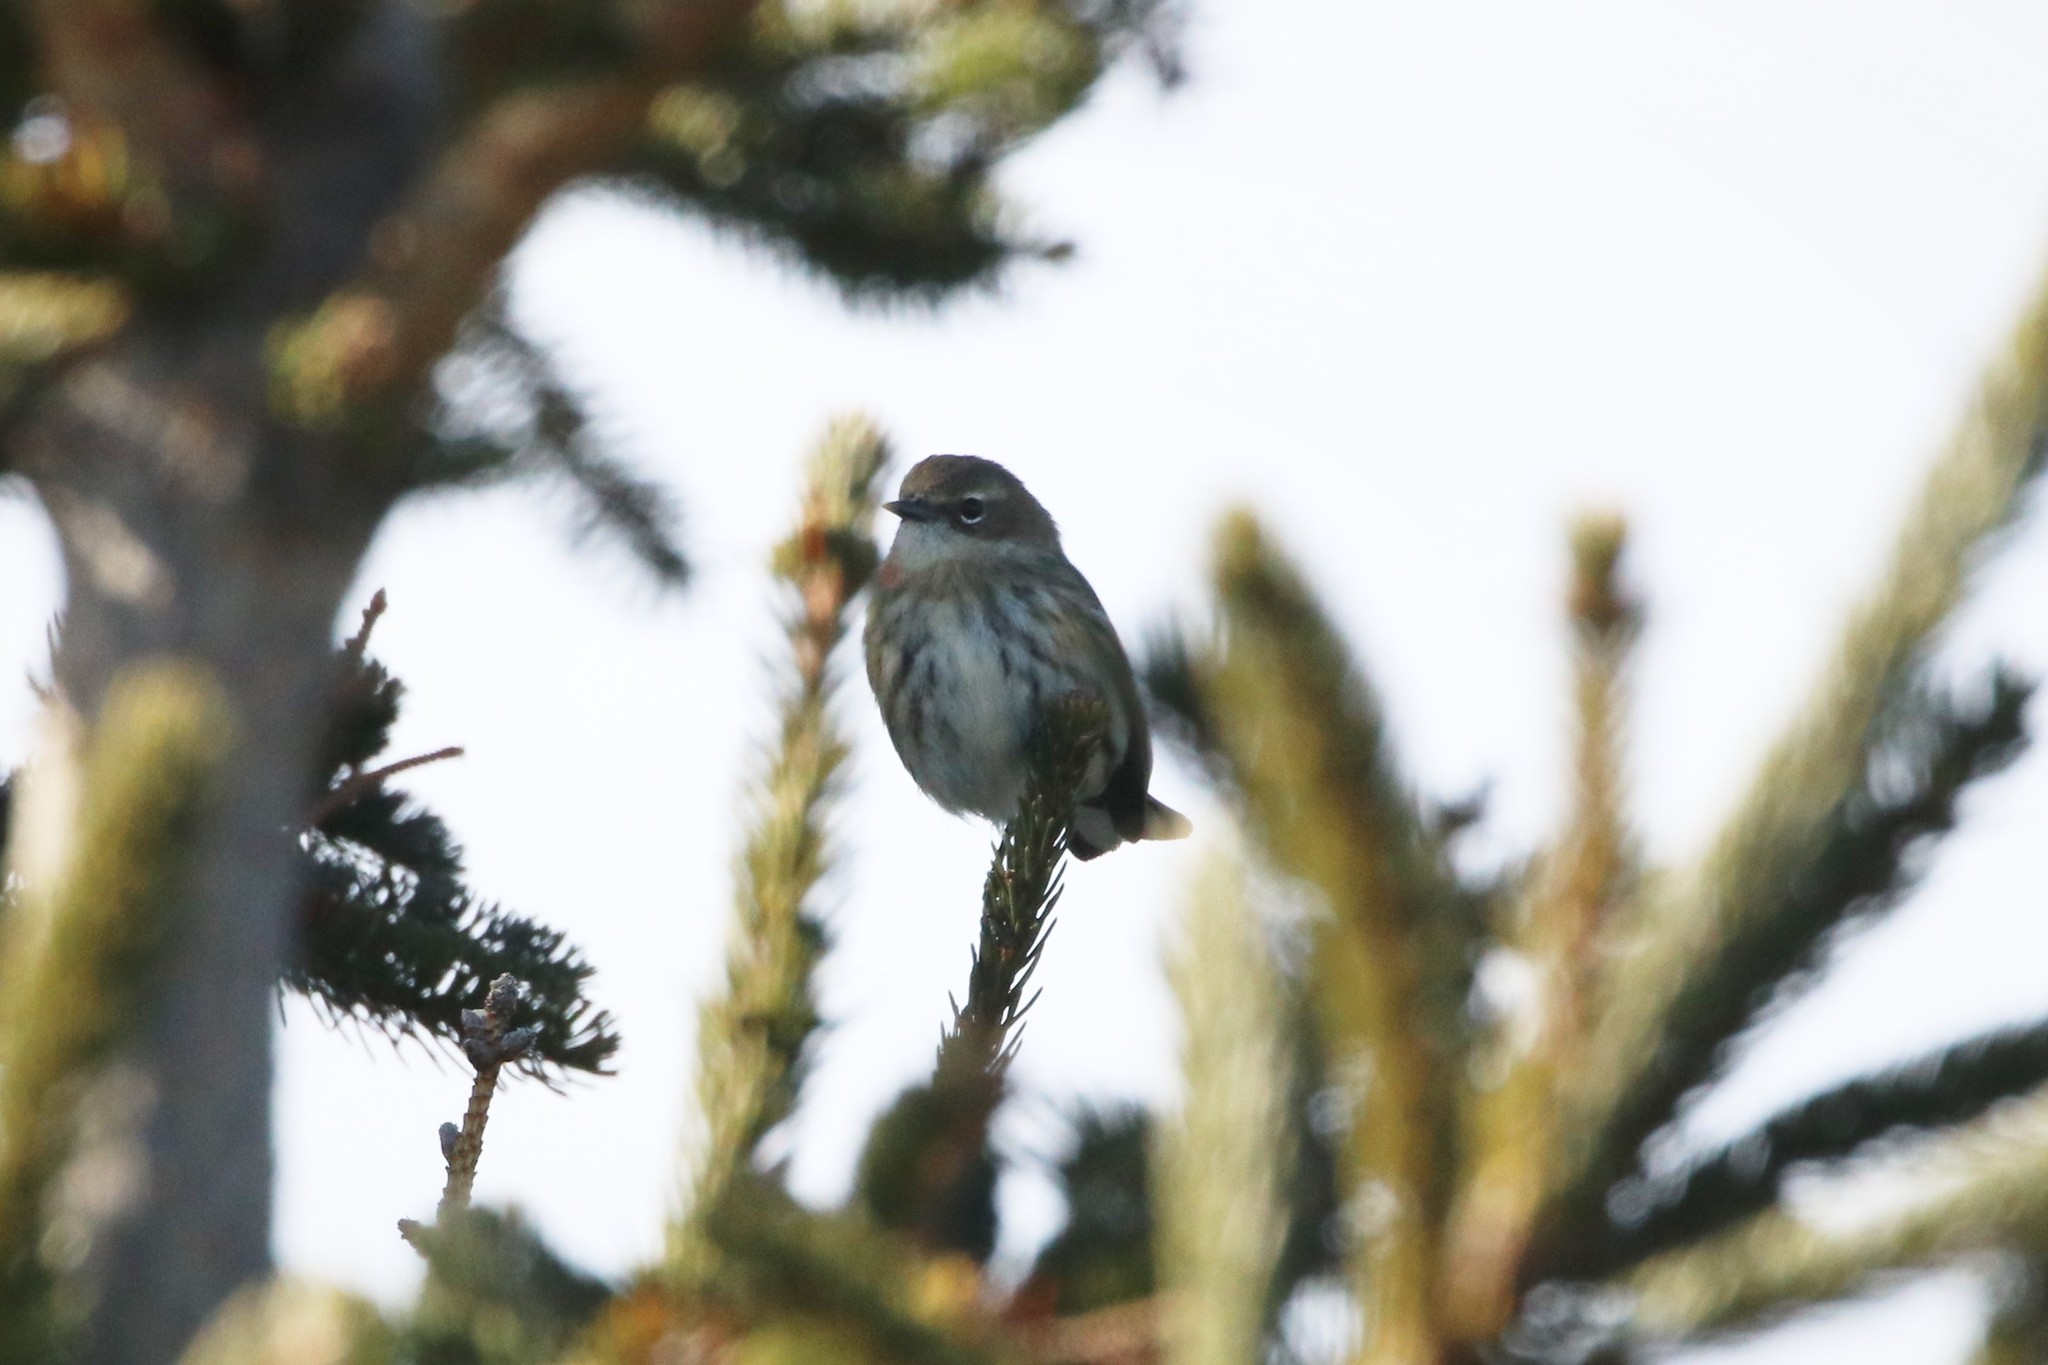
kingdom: Animalia
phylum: Chordata
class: Aves
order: Passeriformes
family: Parulidae
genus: Setophaga
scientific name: Setophaga coronata
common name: Myrtle warbler
